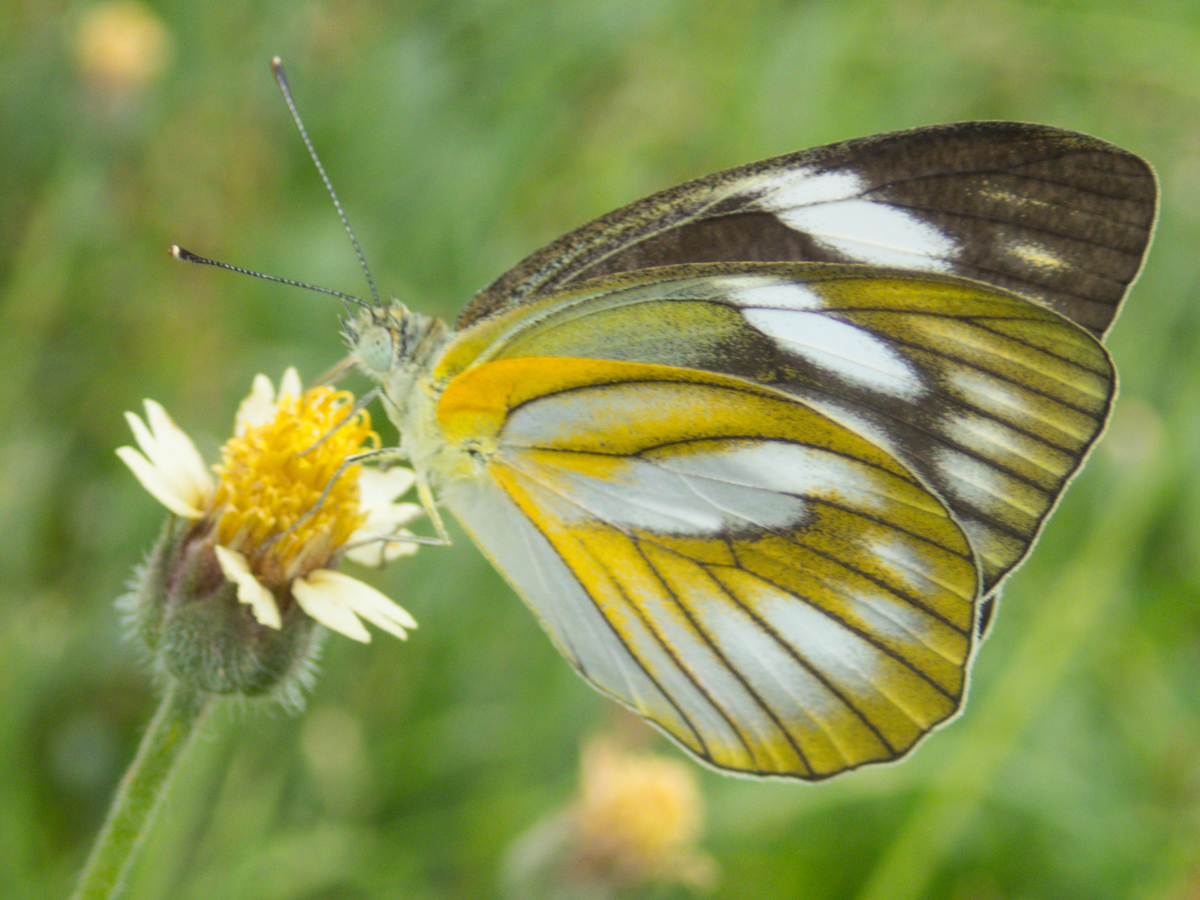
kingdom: Animalia
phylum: Arthropoda
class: Insecta
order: Lepidoptera
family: Pieridae
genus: Appias
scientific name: Appias libythea
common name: Striped albatross
